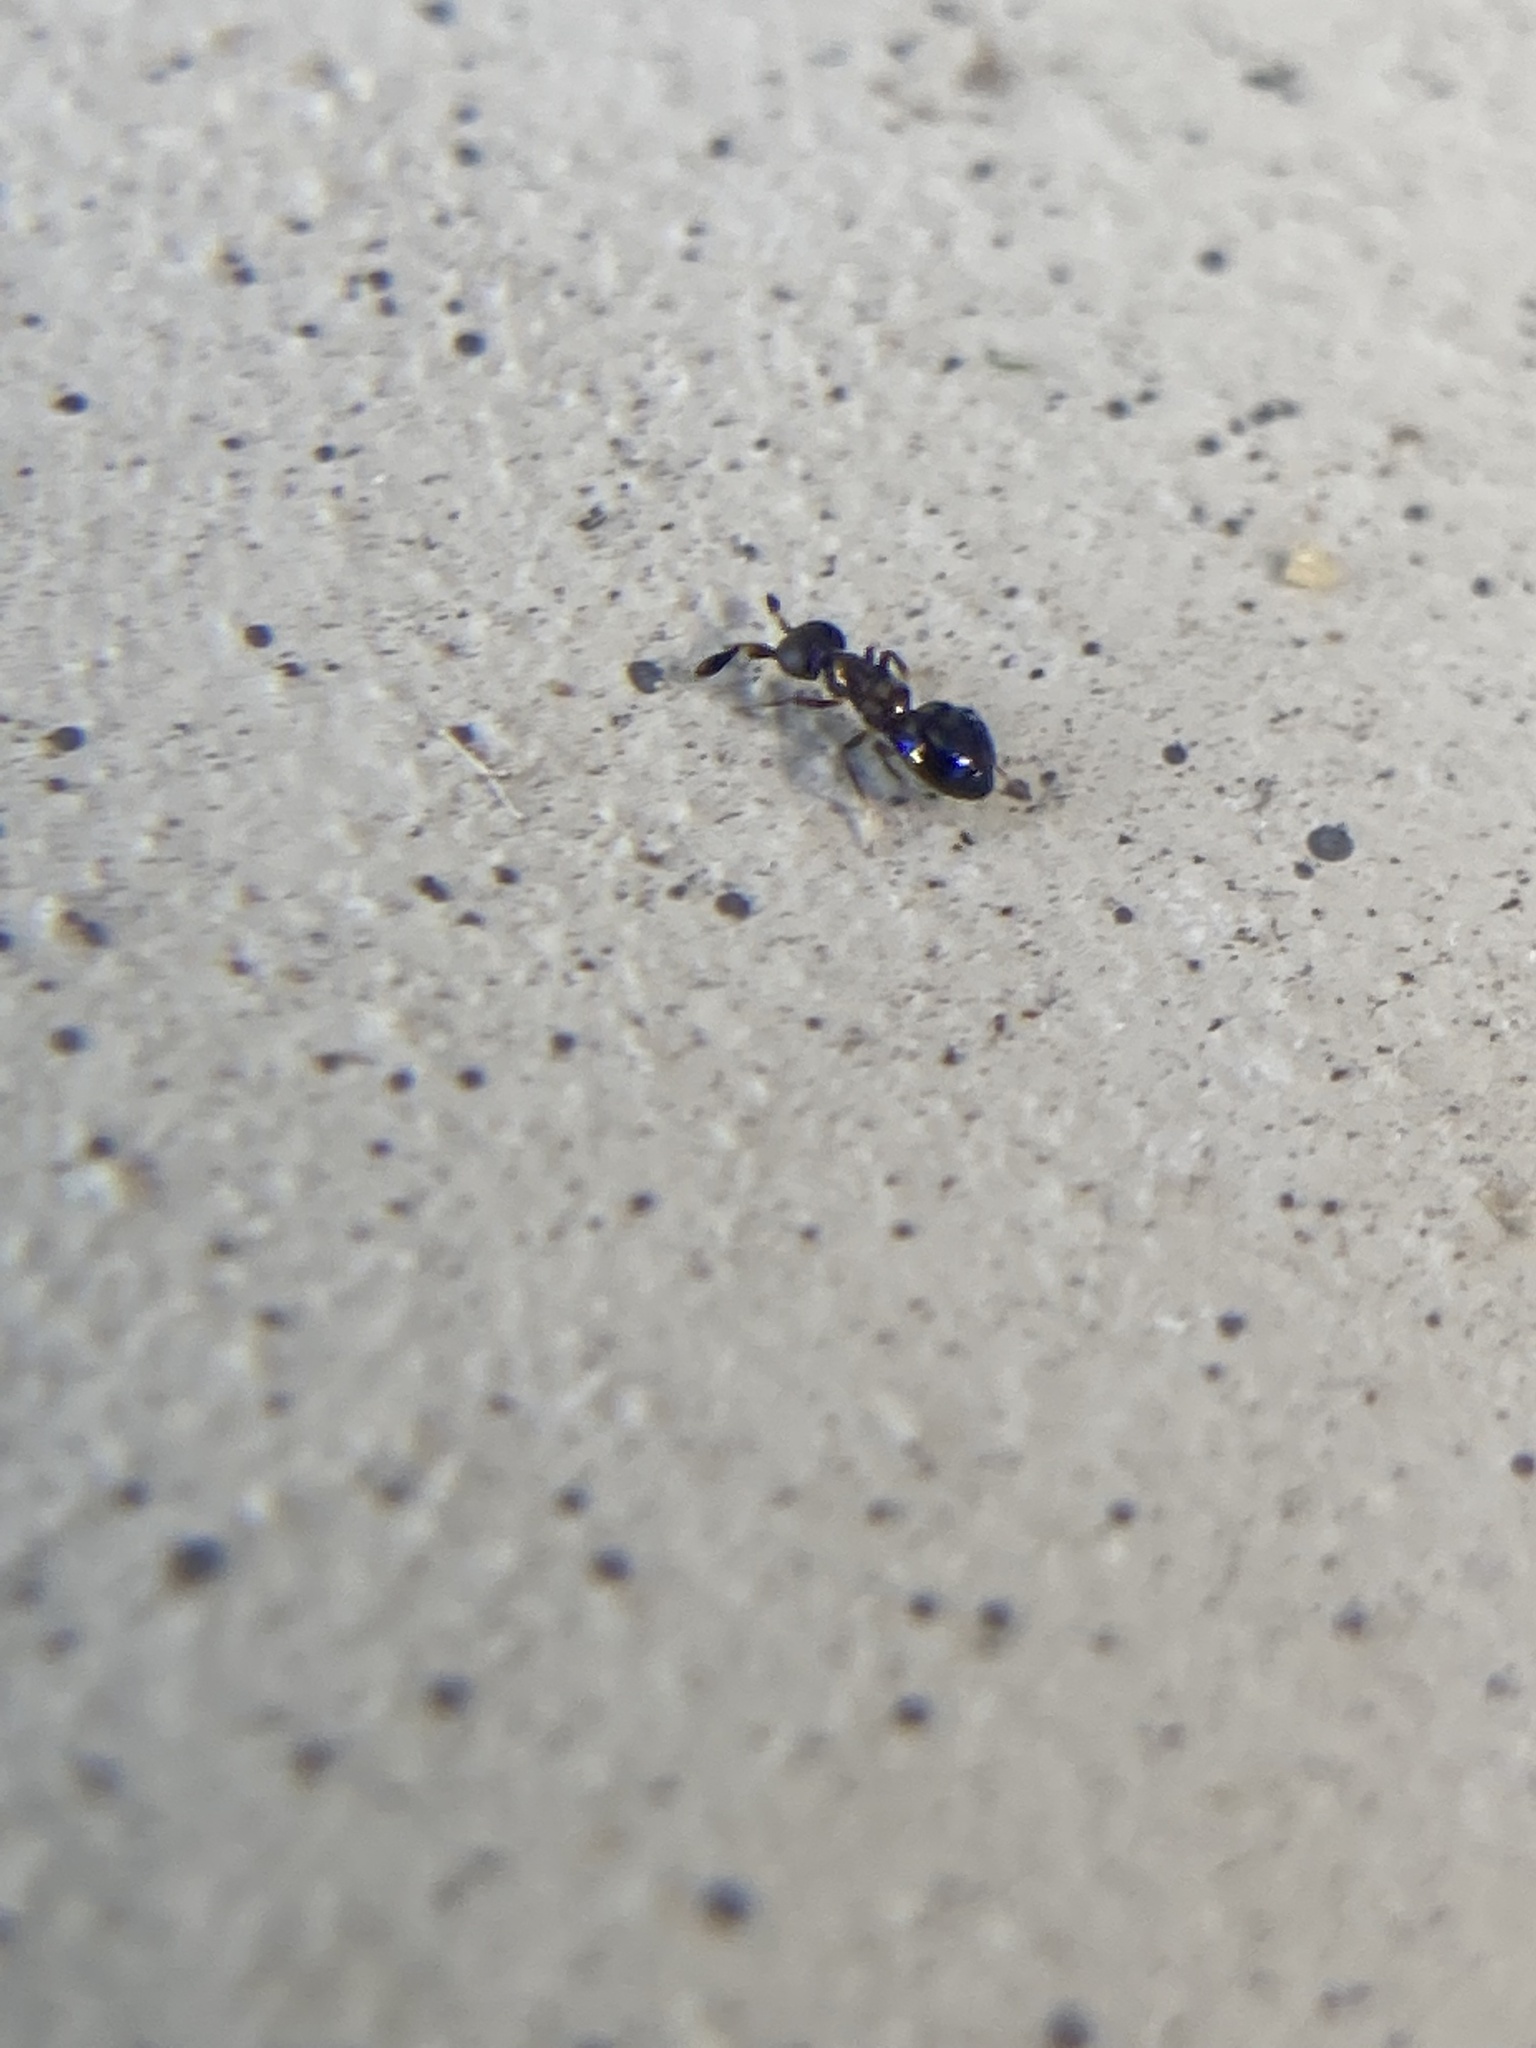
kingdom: Animalia
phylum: Arthropoda
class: Insecta
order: Hymenoptera
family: Encyrtidae
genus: Holcencyrtus
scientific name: Holcencyrtus
